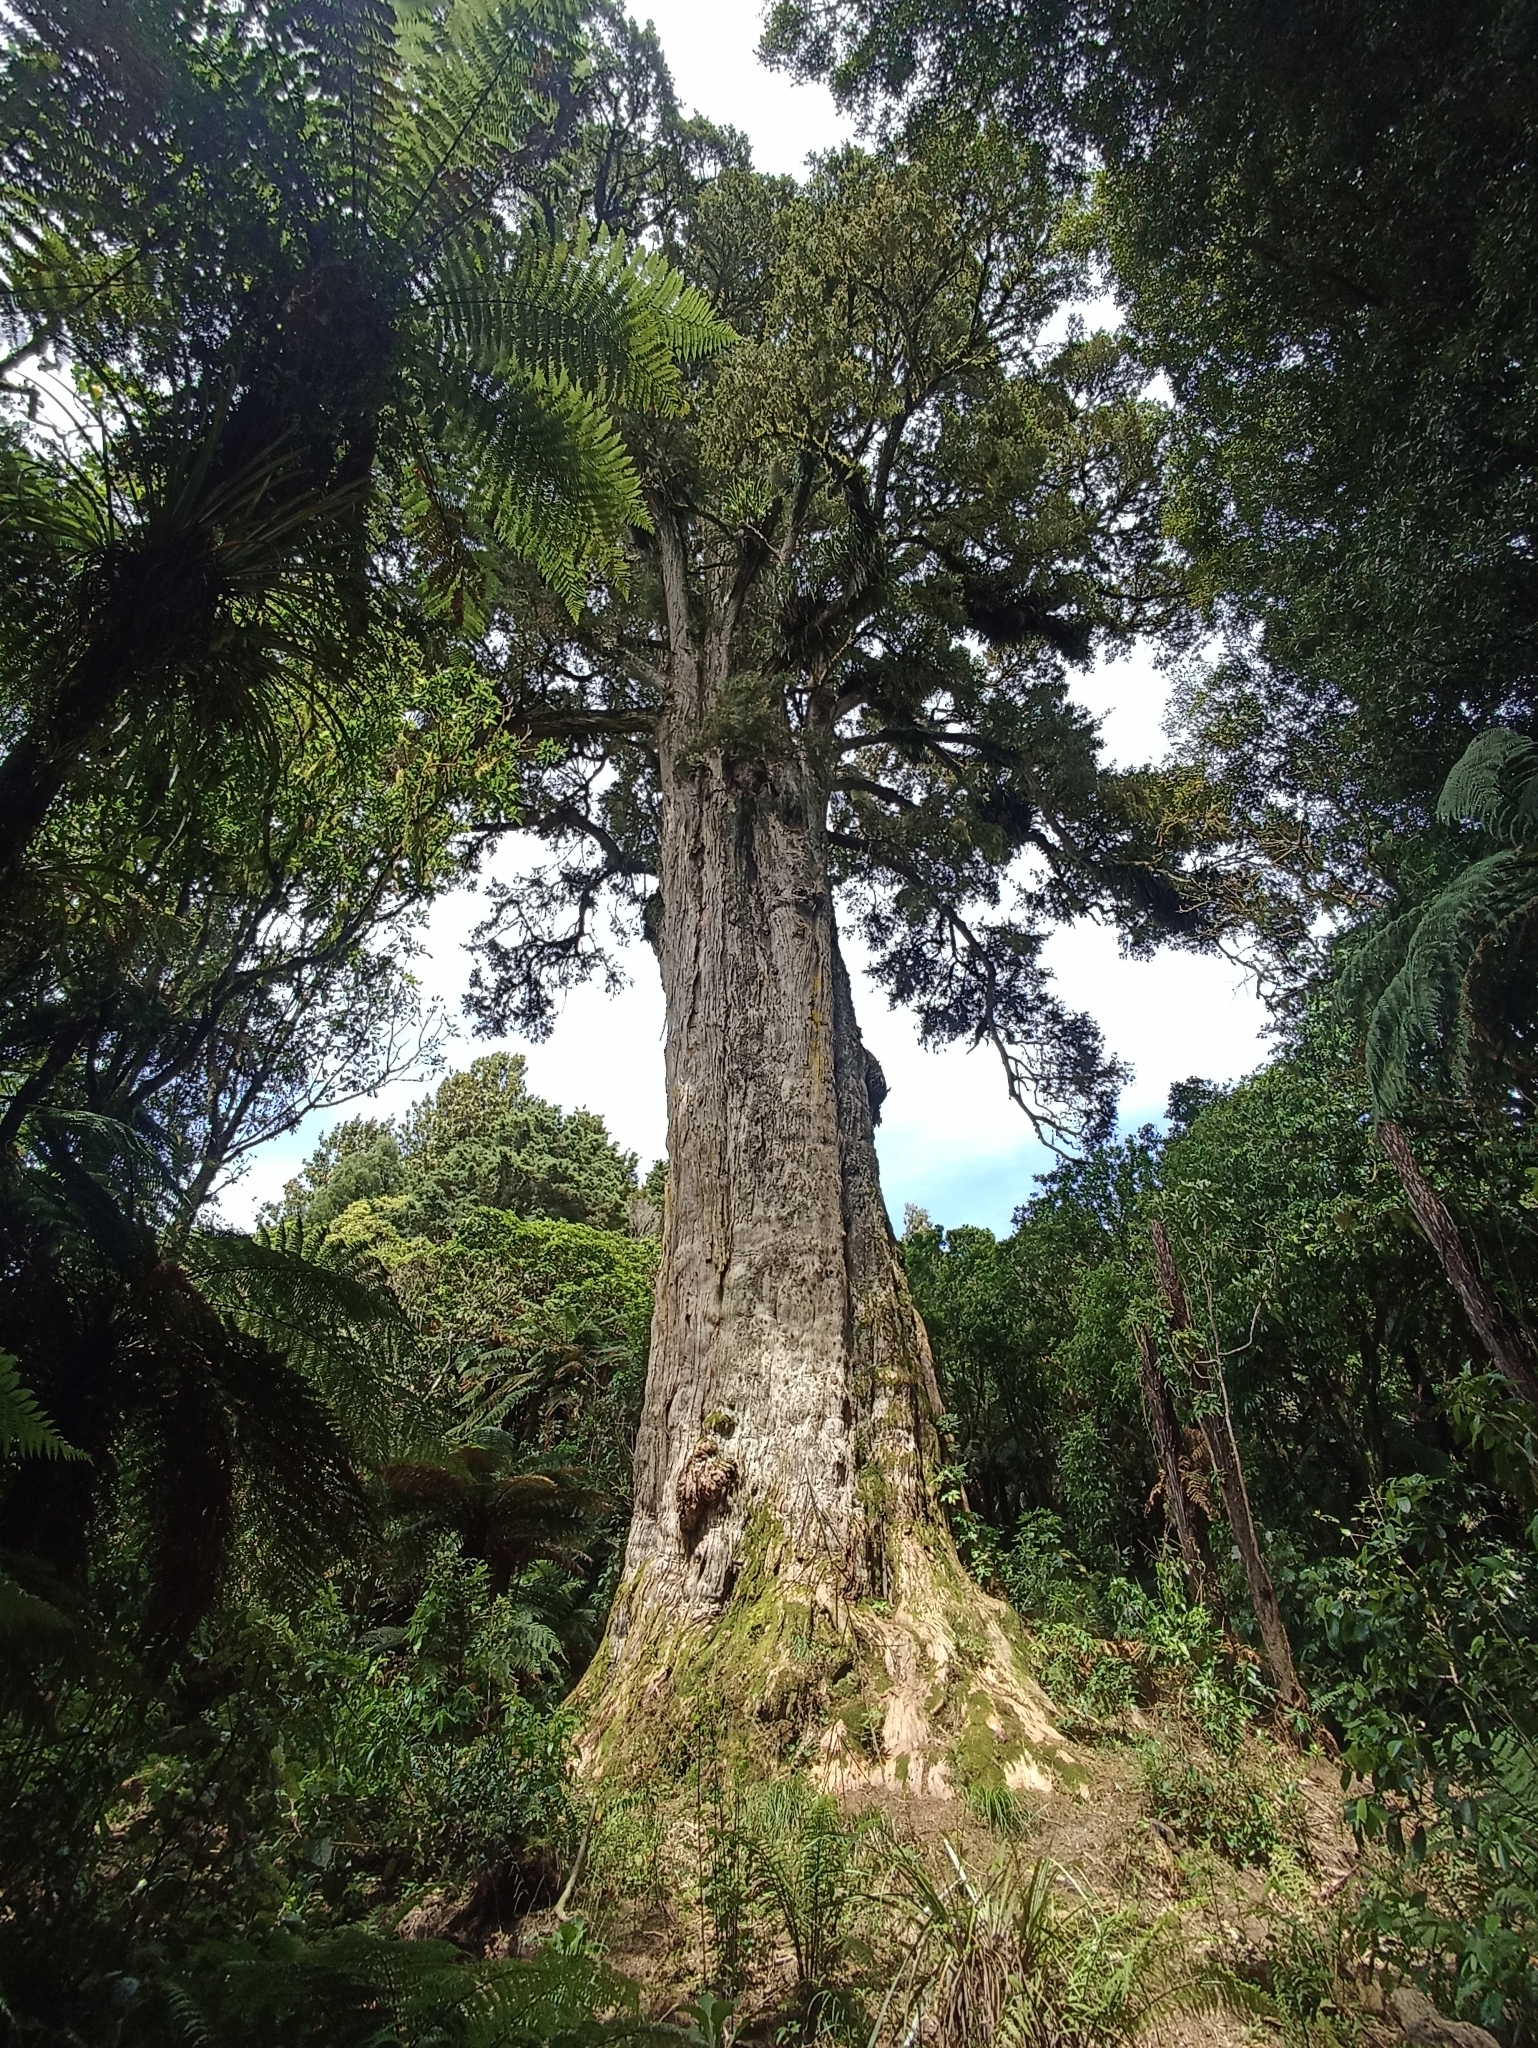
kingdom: Plantae
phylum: Tracheophyta
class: Pinopsida
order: Pinales
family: Podocarpaceae
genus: Podocarpus
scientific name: Podocarpus totara
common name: Totara
